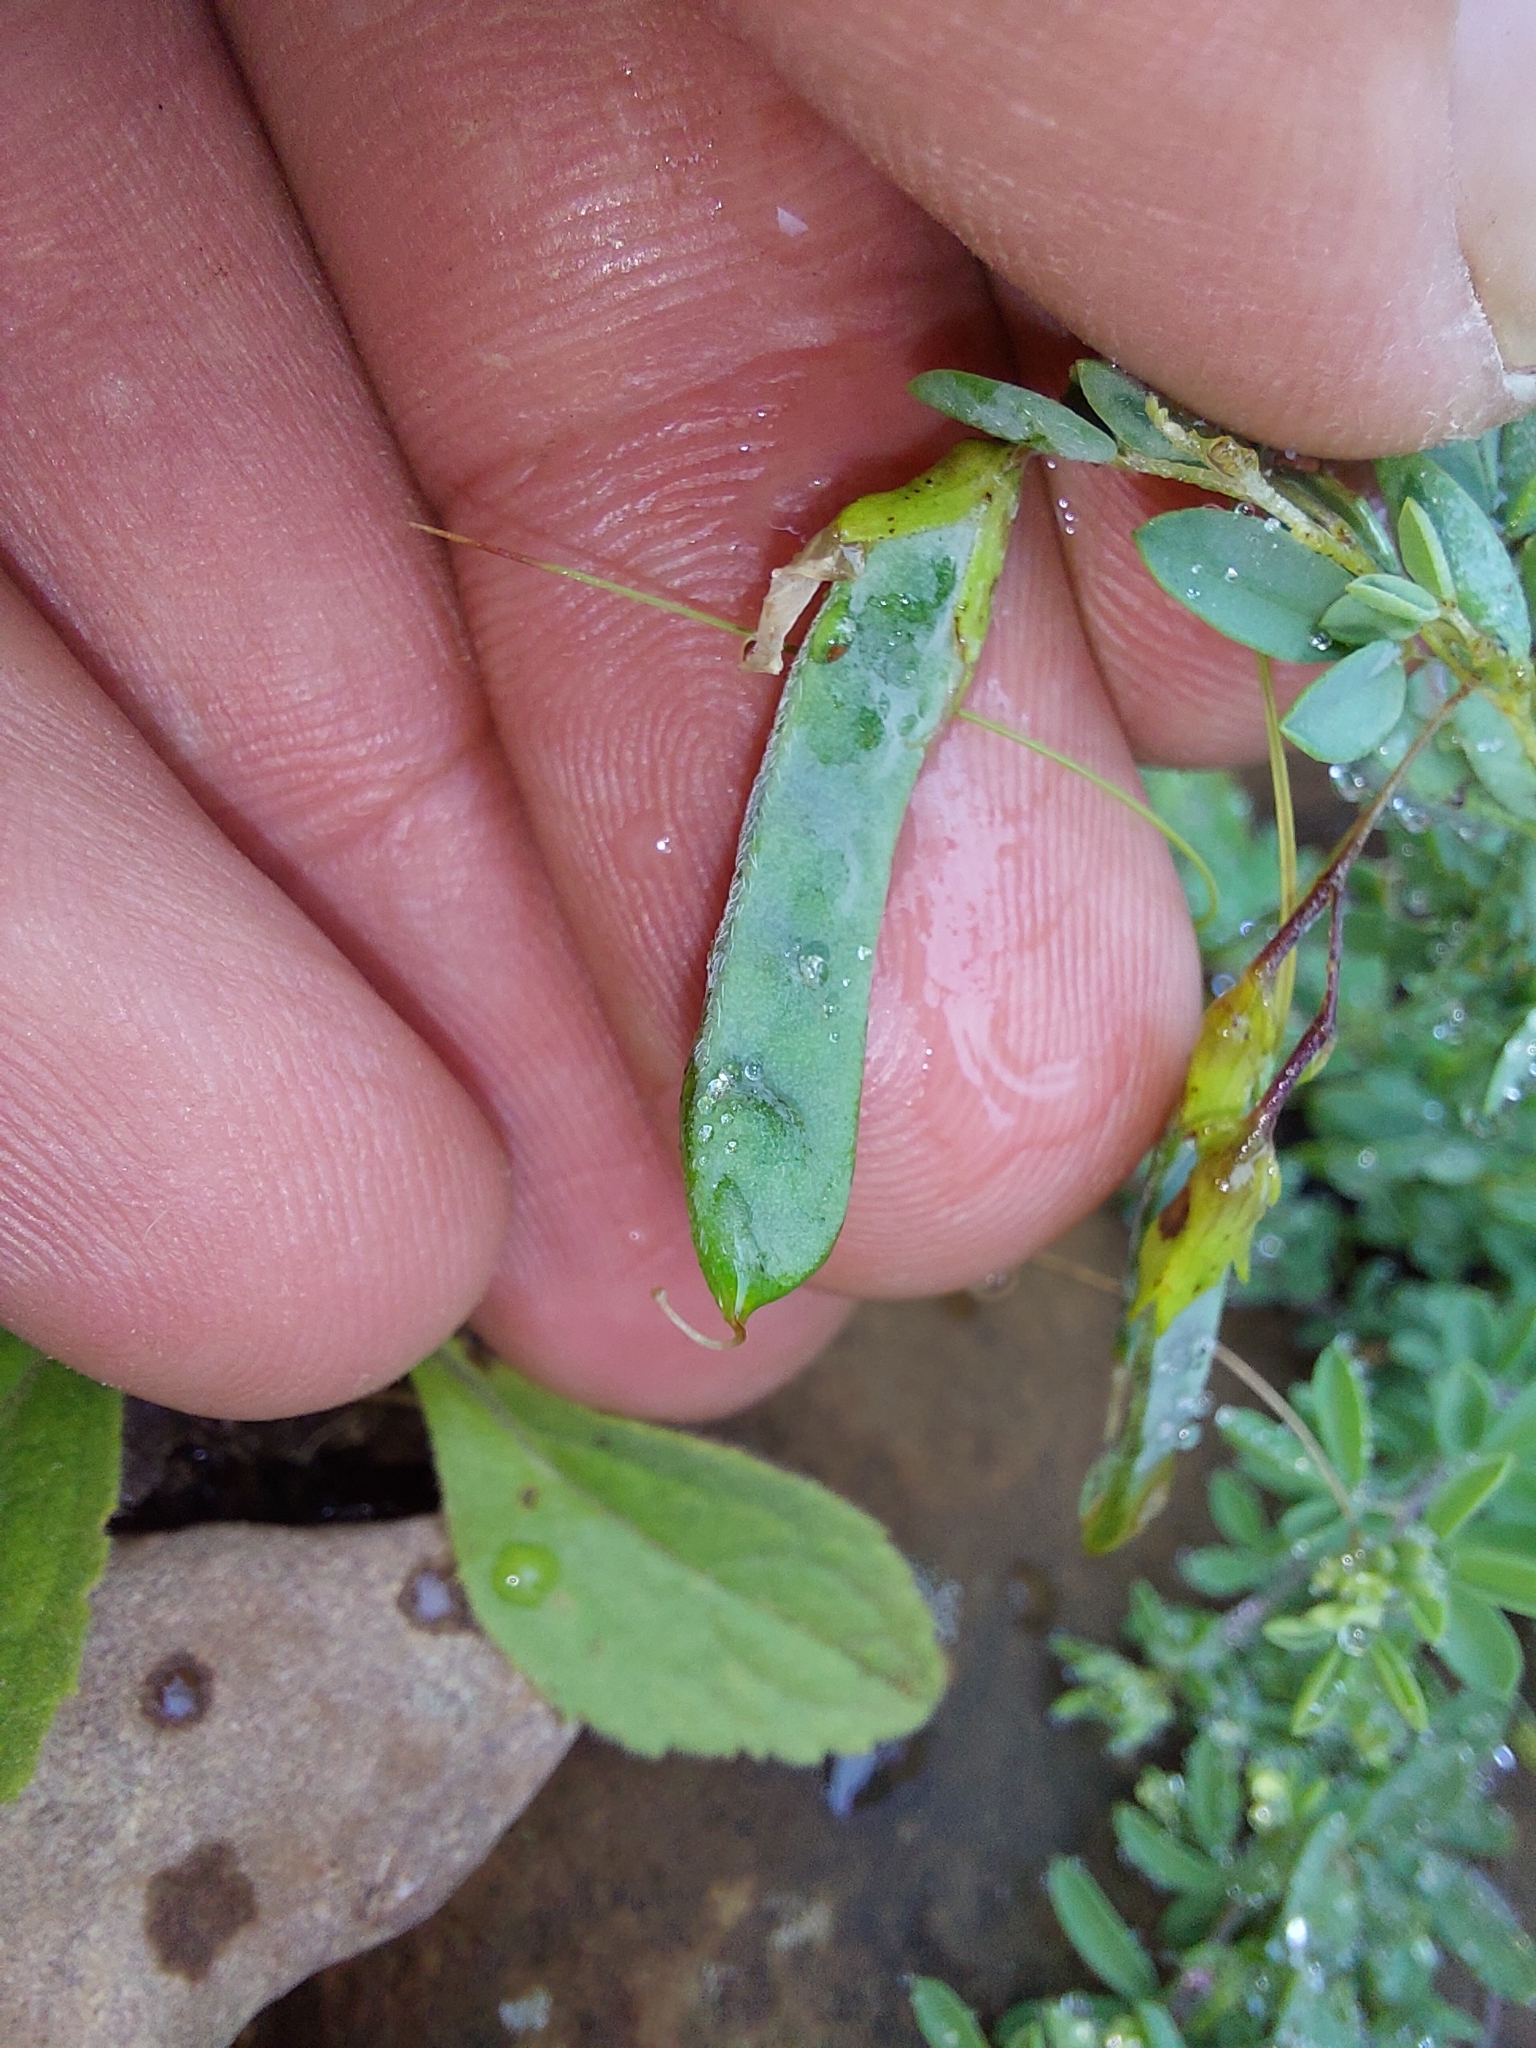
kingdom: Plantae
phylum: Tracheophyta
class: Magnoliopsida
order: Fabales
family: Fabaceae
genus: Dichilus
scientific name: Dichilus reflexus
